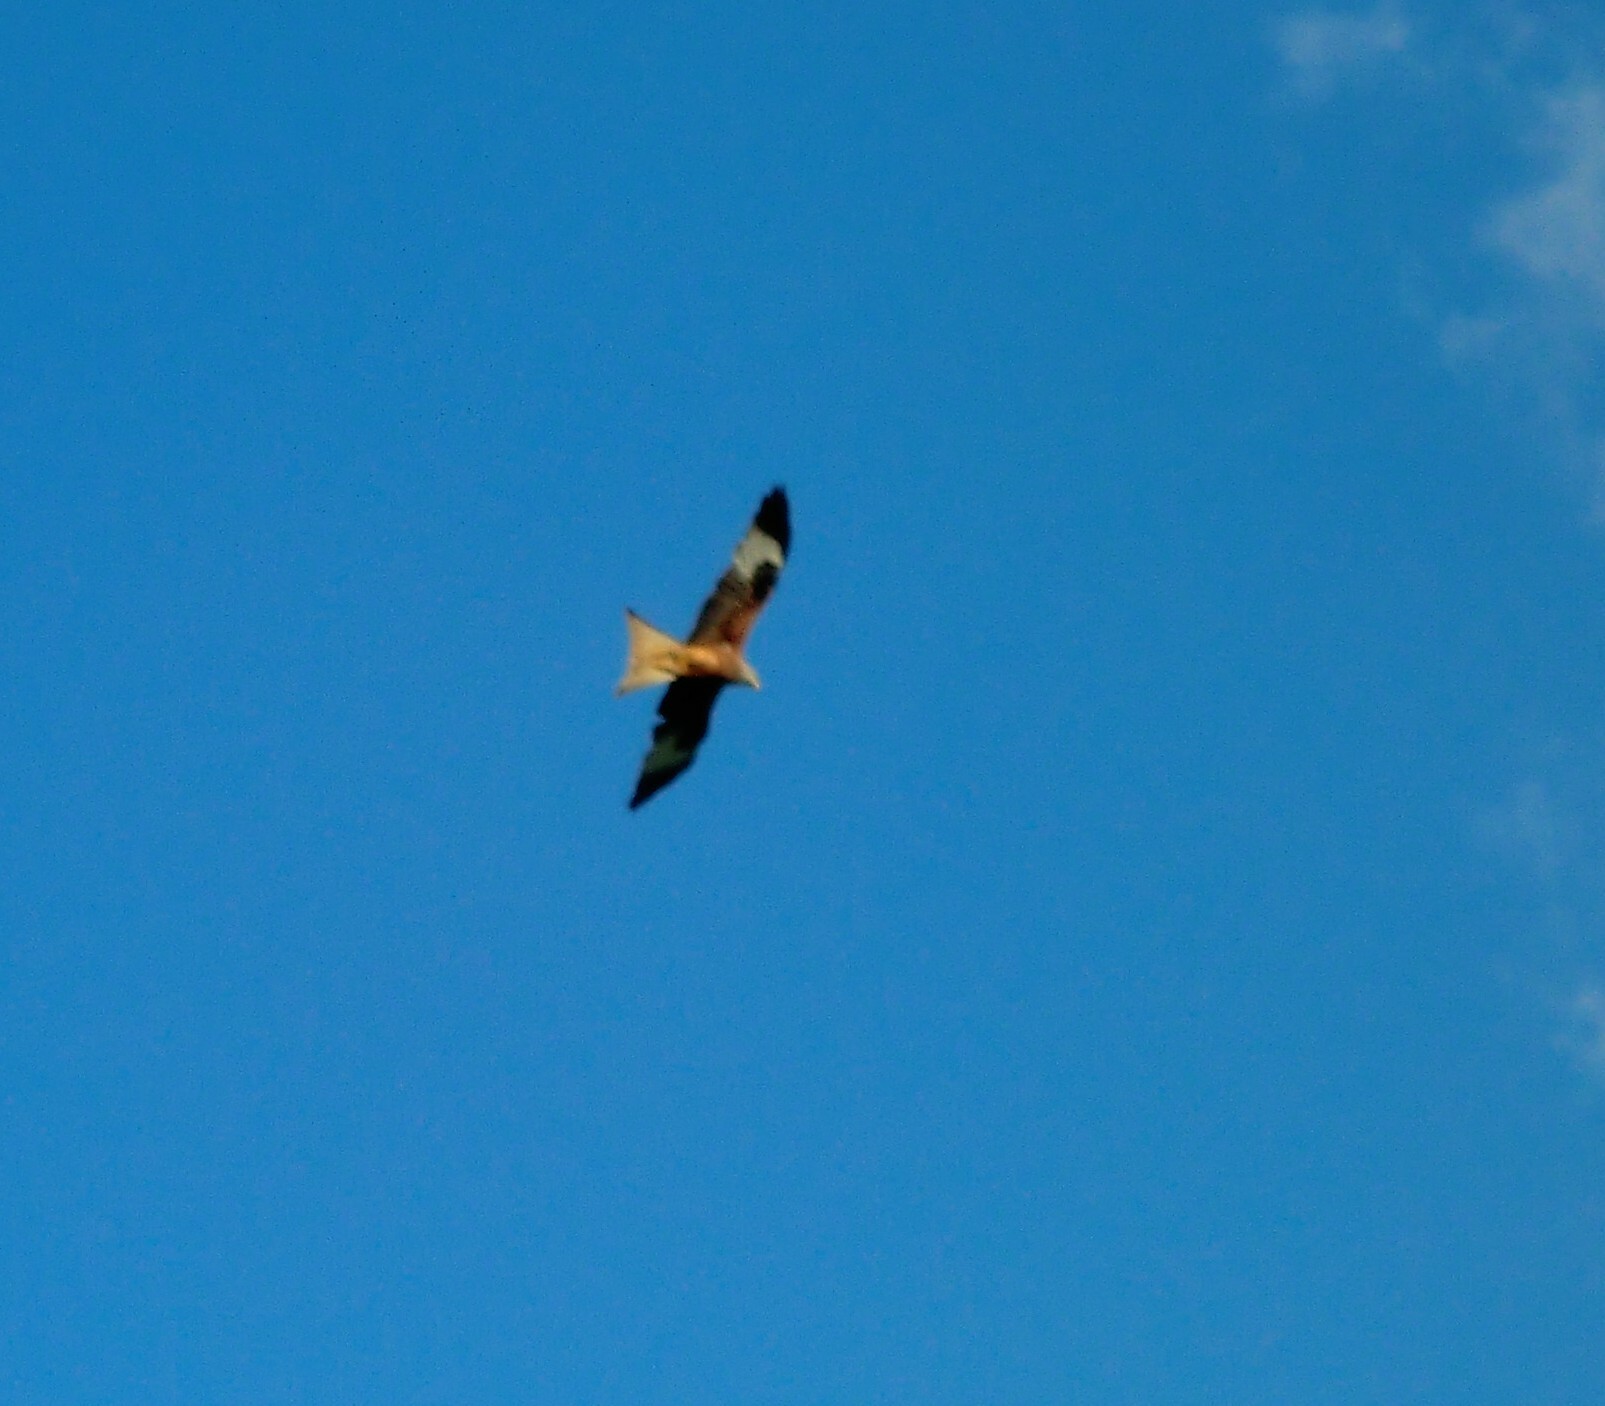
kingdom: Animalia
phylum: Chordata
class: Aves
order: Accipitriformes
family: Accipitridae
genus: Milvus
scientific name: Milvus milvus
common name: Red kite
